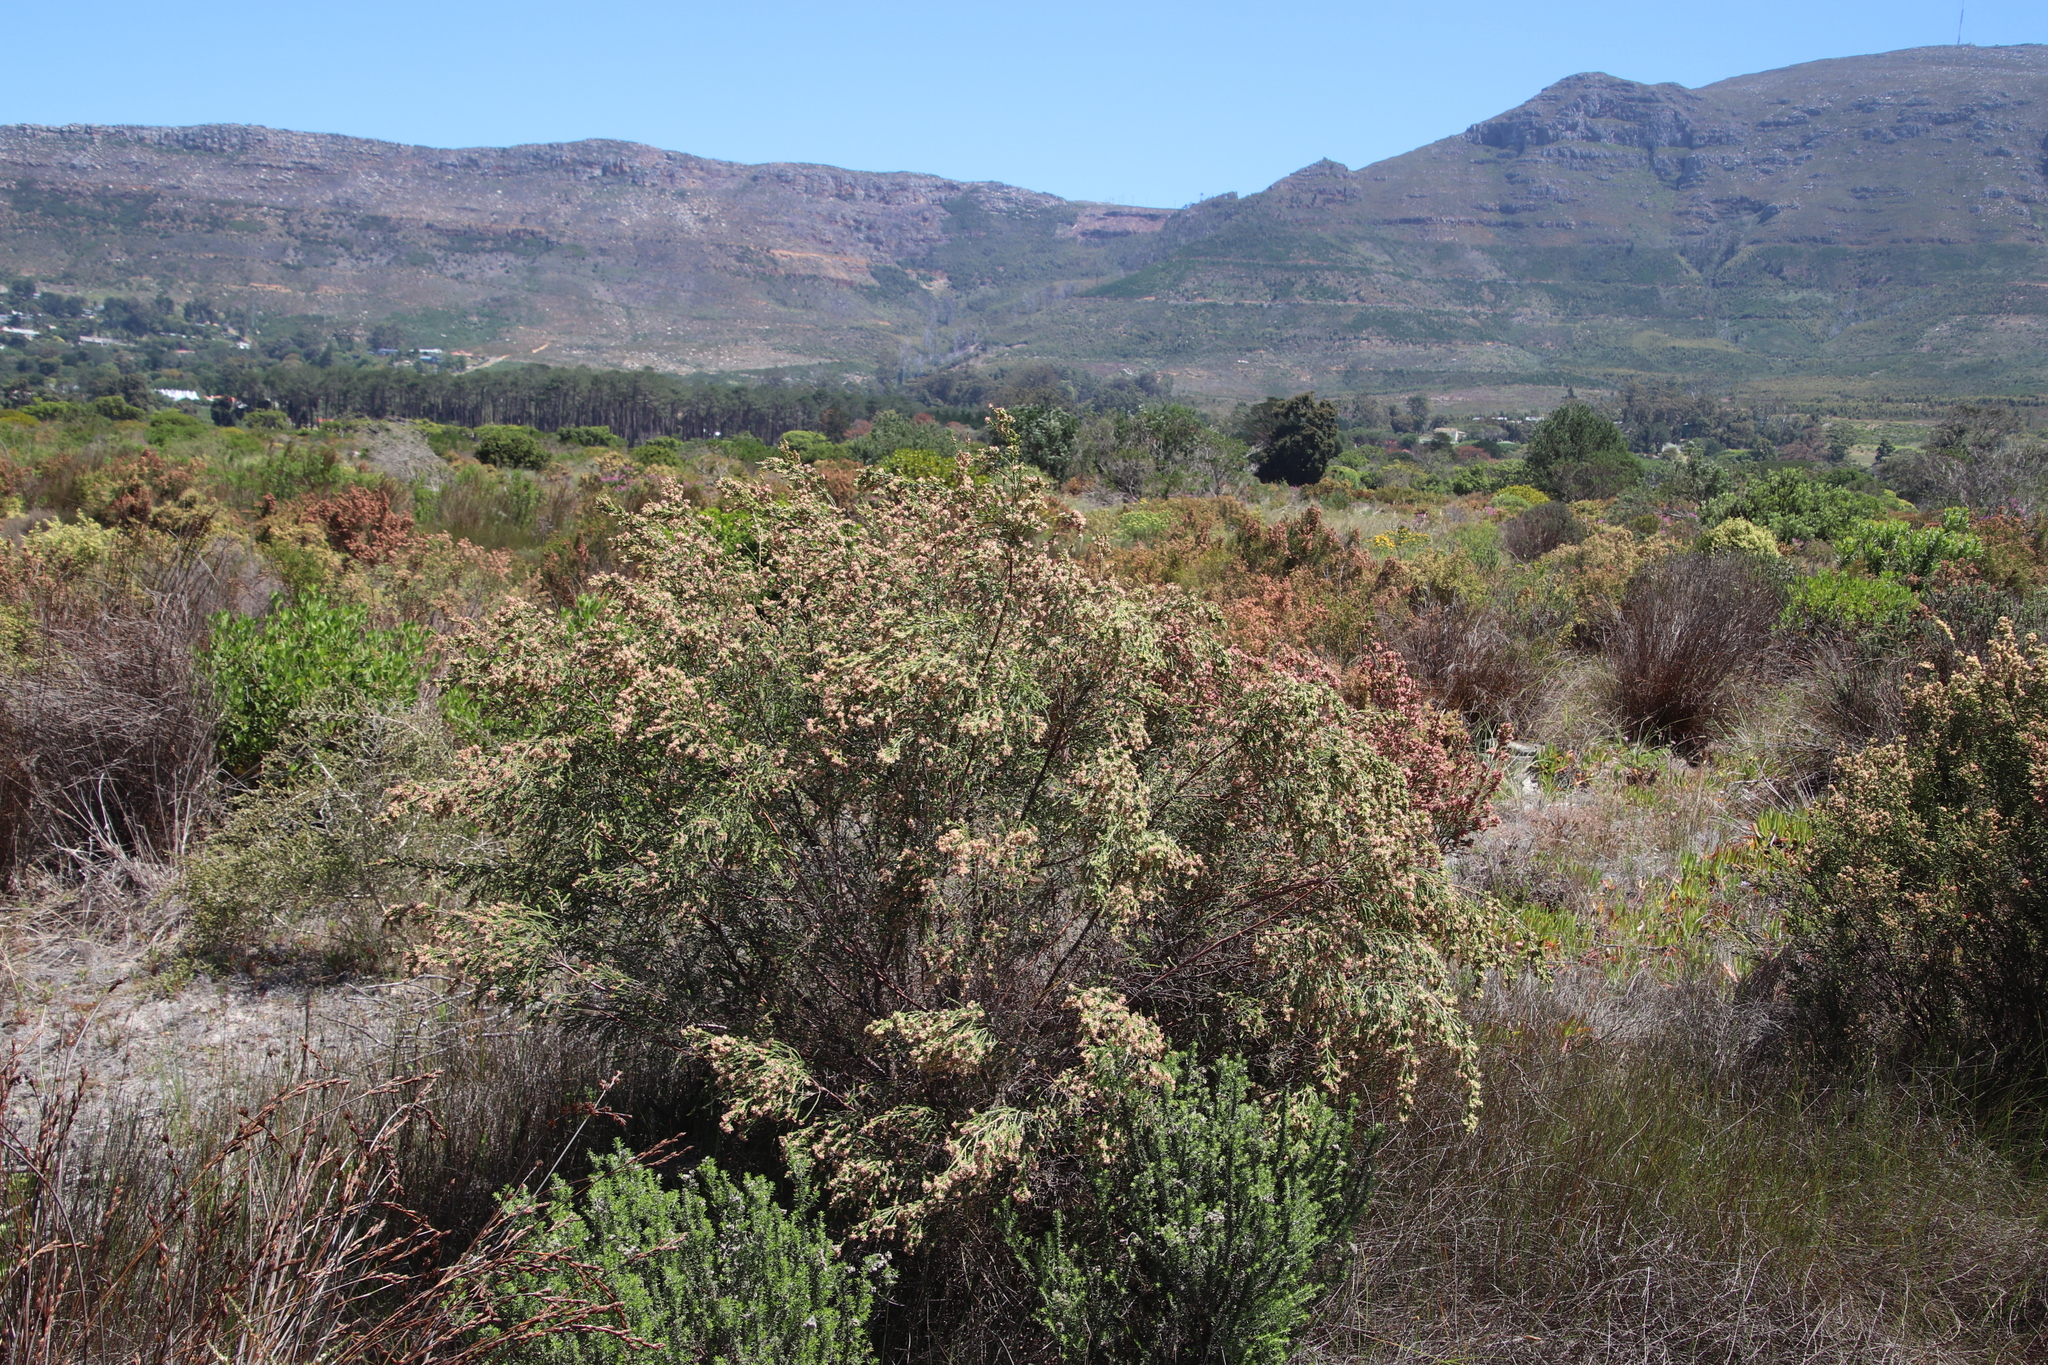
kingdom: Plantae
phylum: Tracheophyta
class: Magnoliopsida
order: Malvales
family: Thymelaeaceae
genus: Passerina
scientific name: Passerina corymbosa
